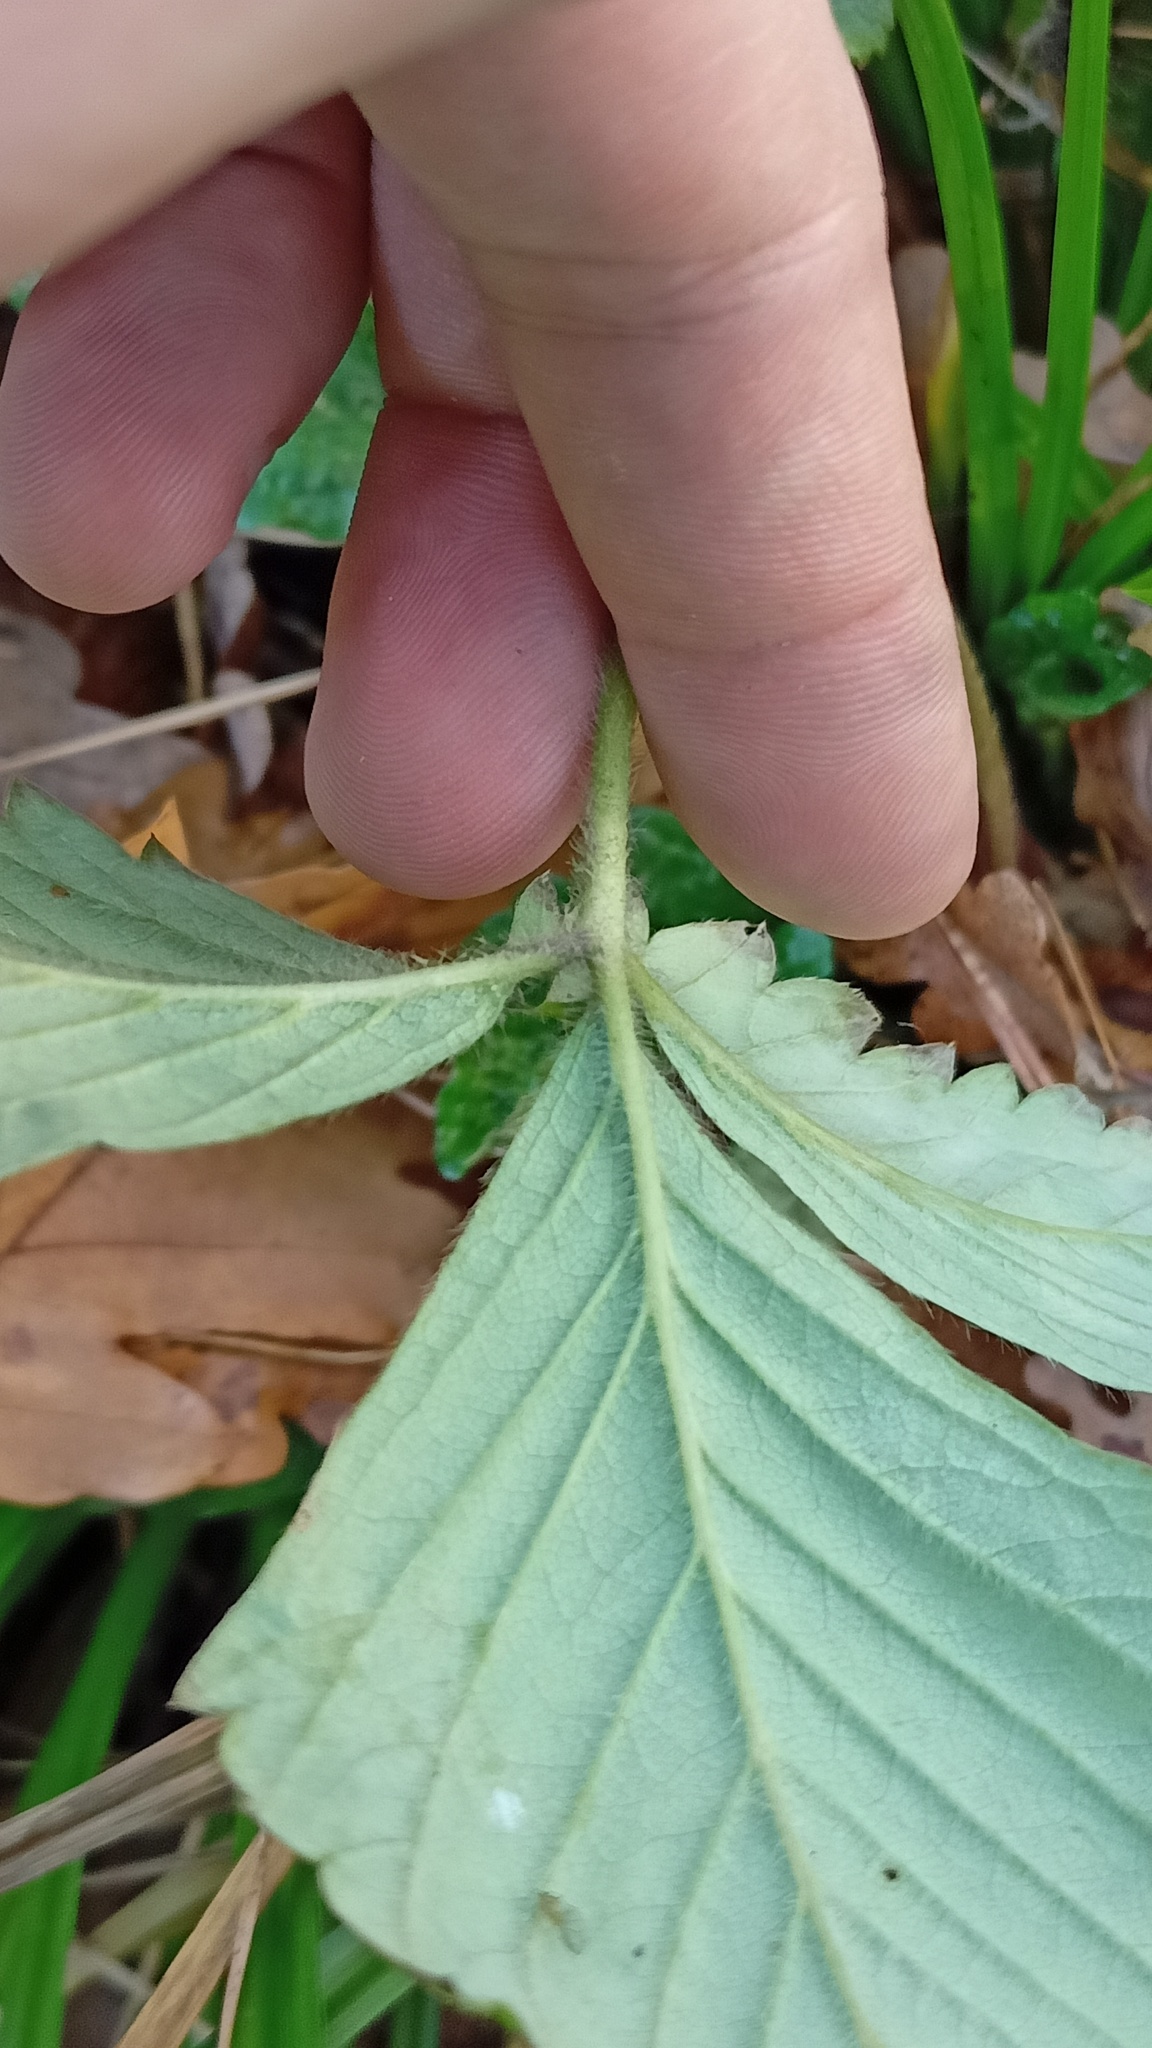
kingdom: Plantae
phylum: Tracheophyta
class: Magnoliopsida
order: Rosales
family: Rosaceae
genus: Fragaria
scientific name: Fragaria moschata
